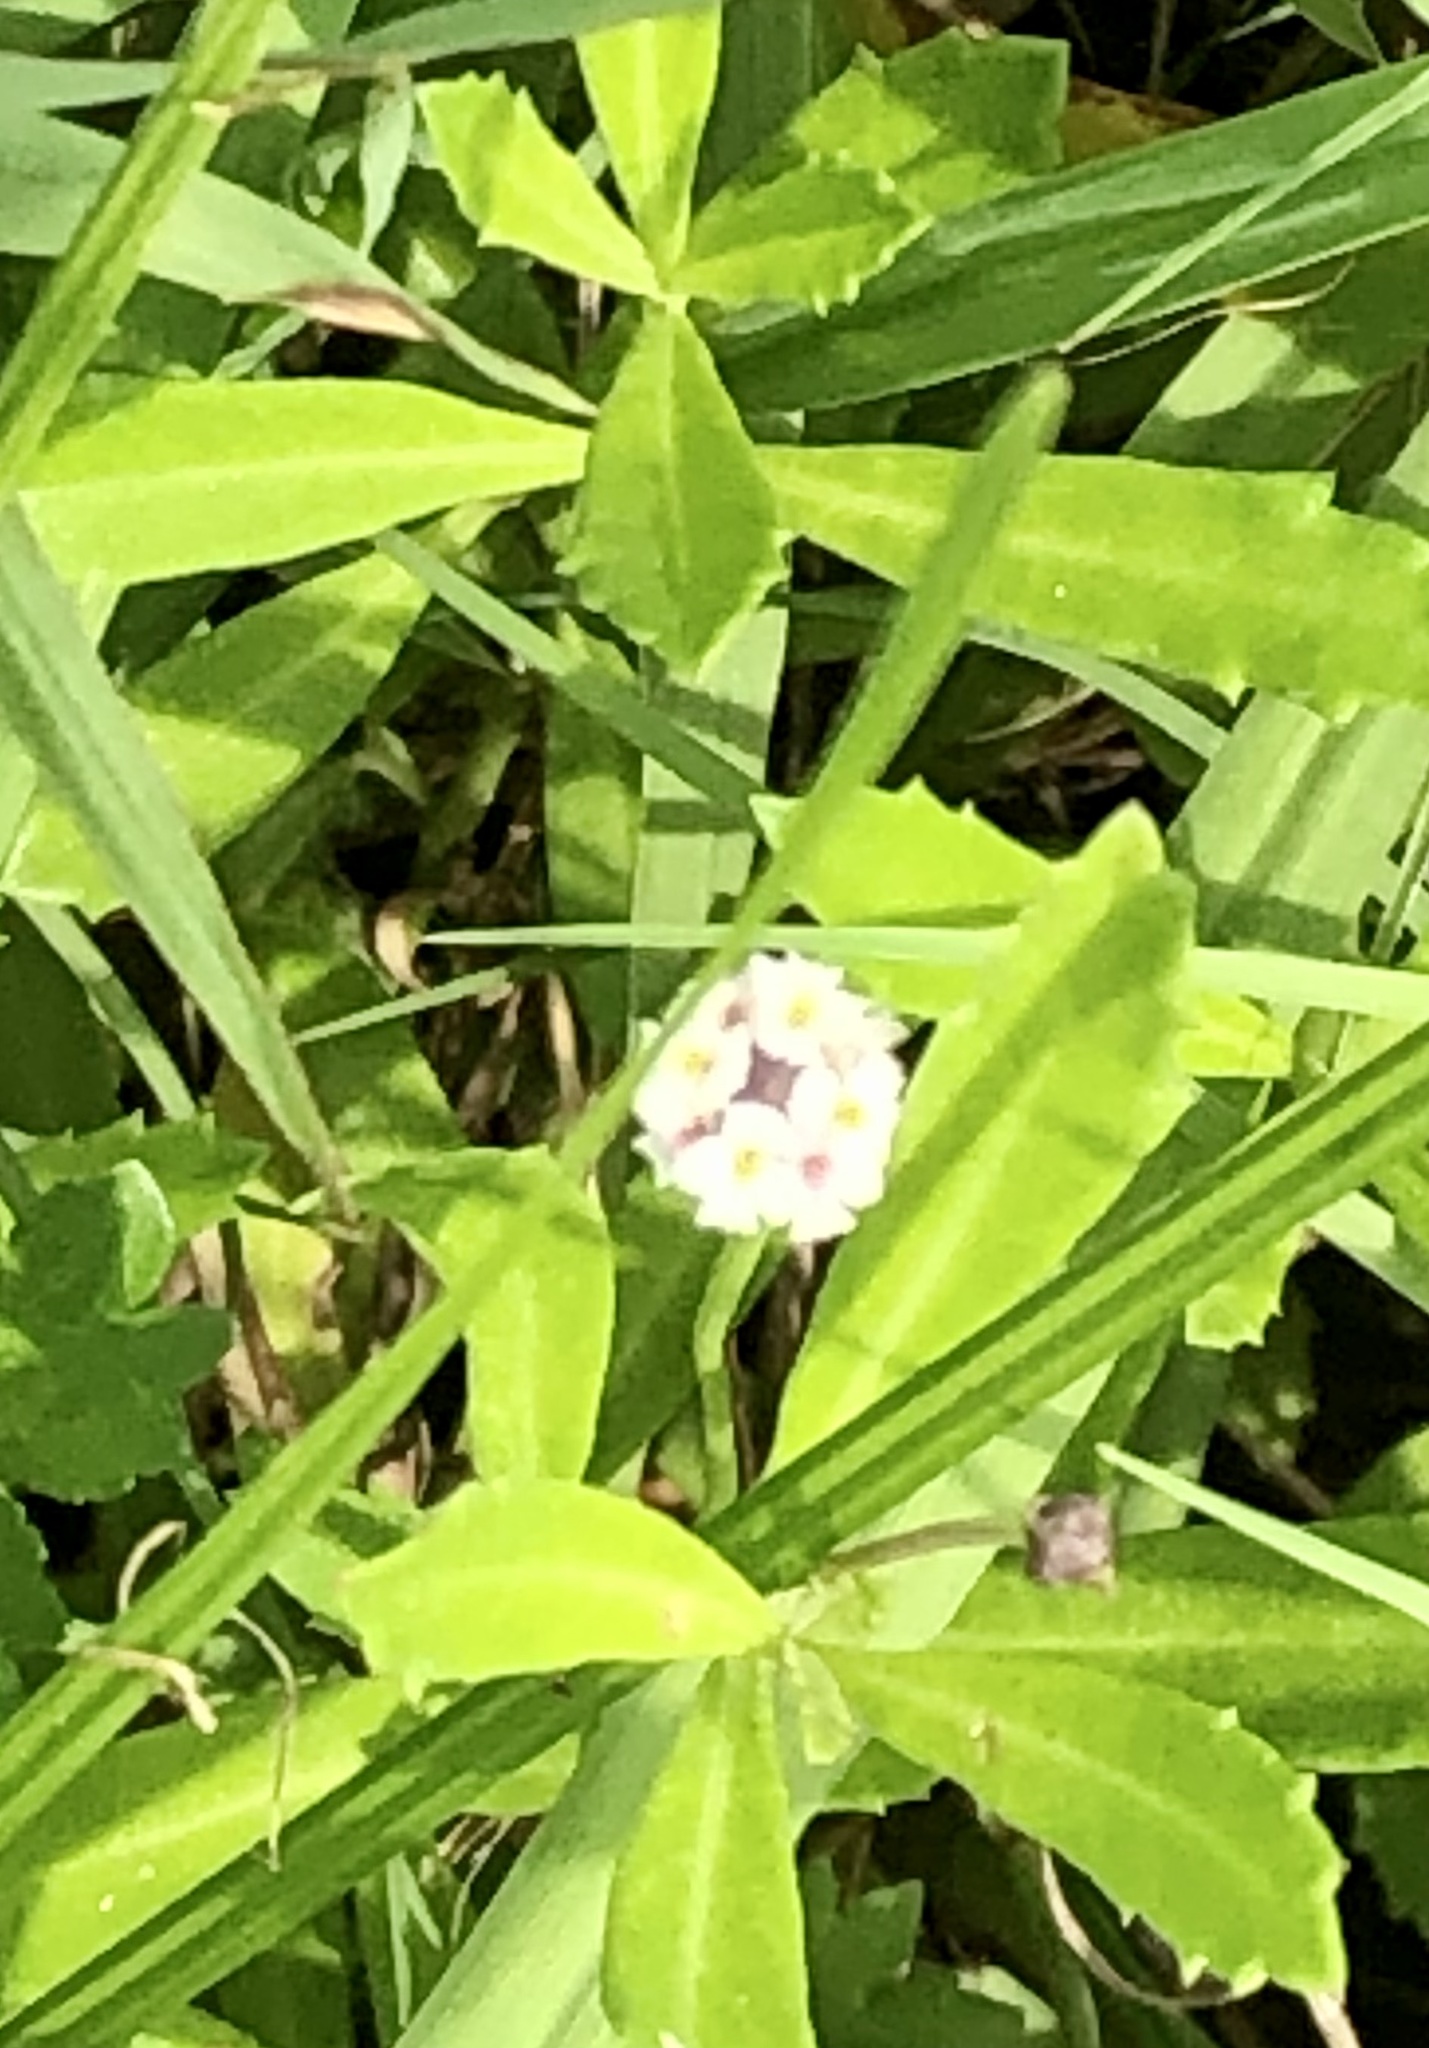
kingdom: Plantae
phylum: Tracheophyta
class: Magnoliopsida
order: Lamiales
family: Verbenaceae
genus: Phyla
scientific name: Phyla nodiflora
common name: Frogfruit
